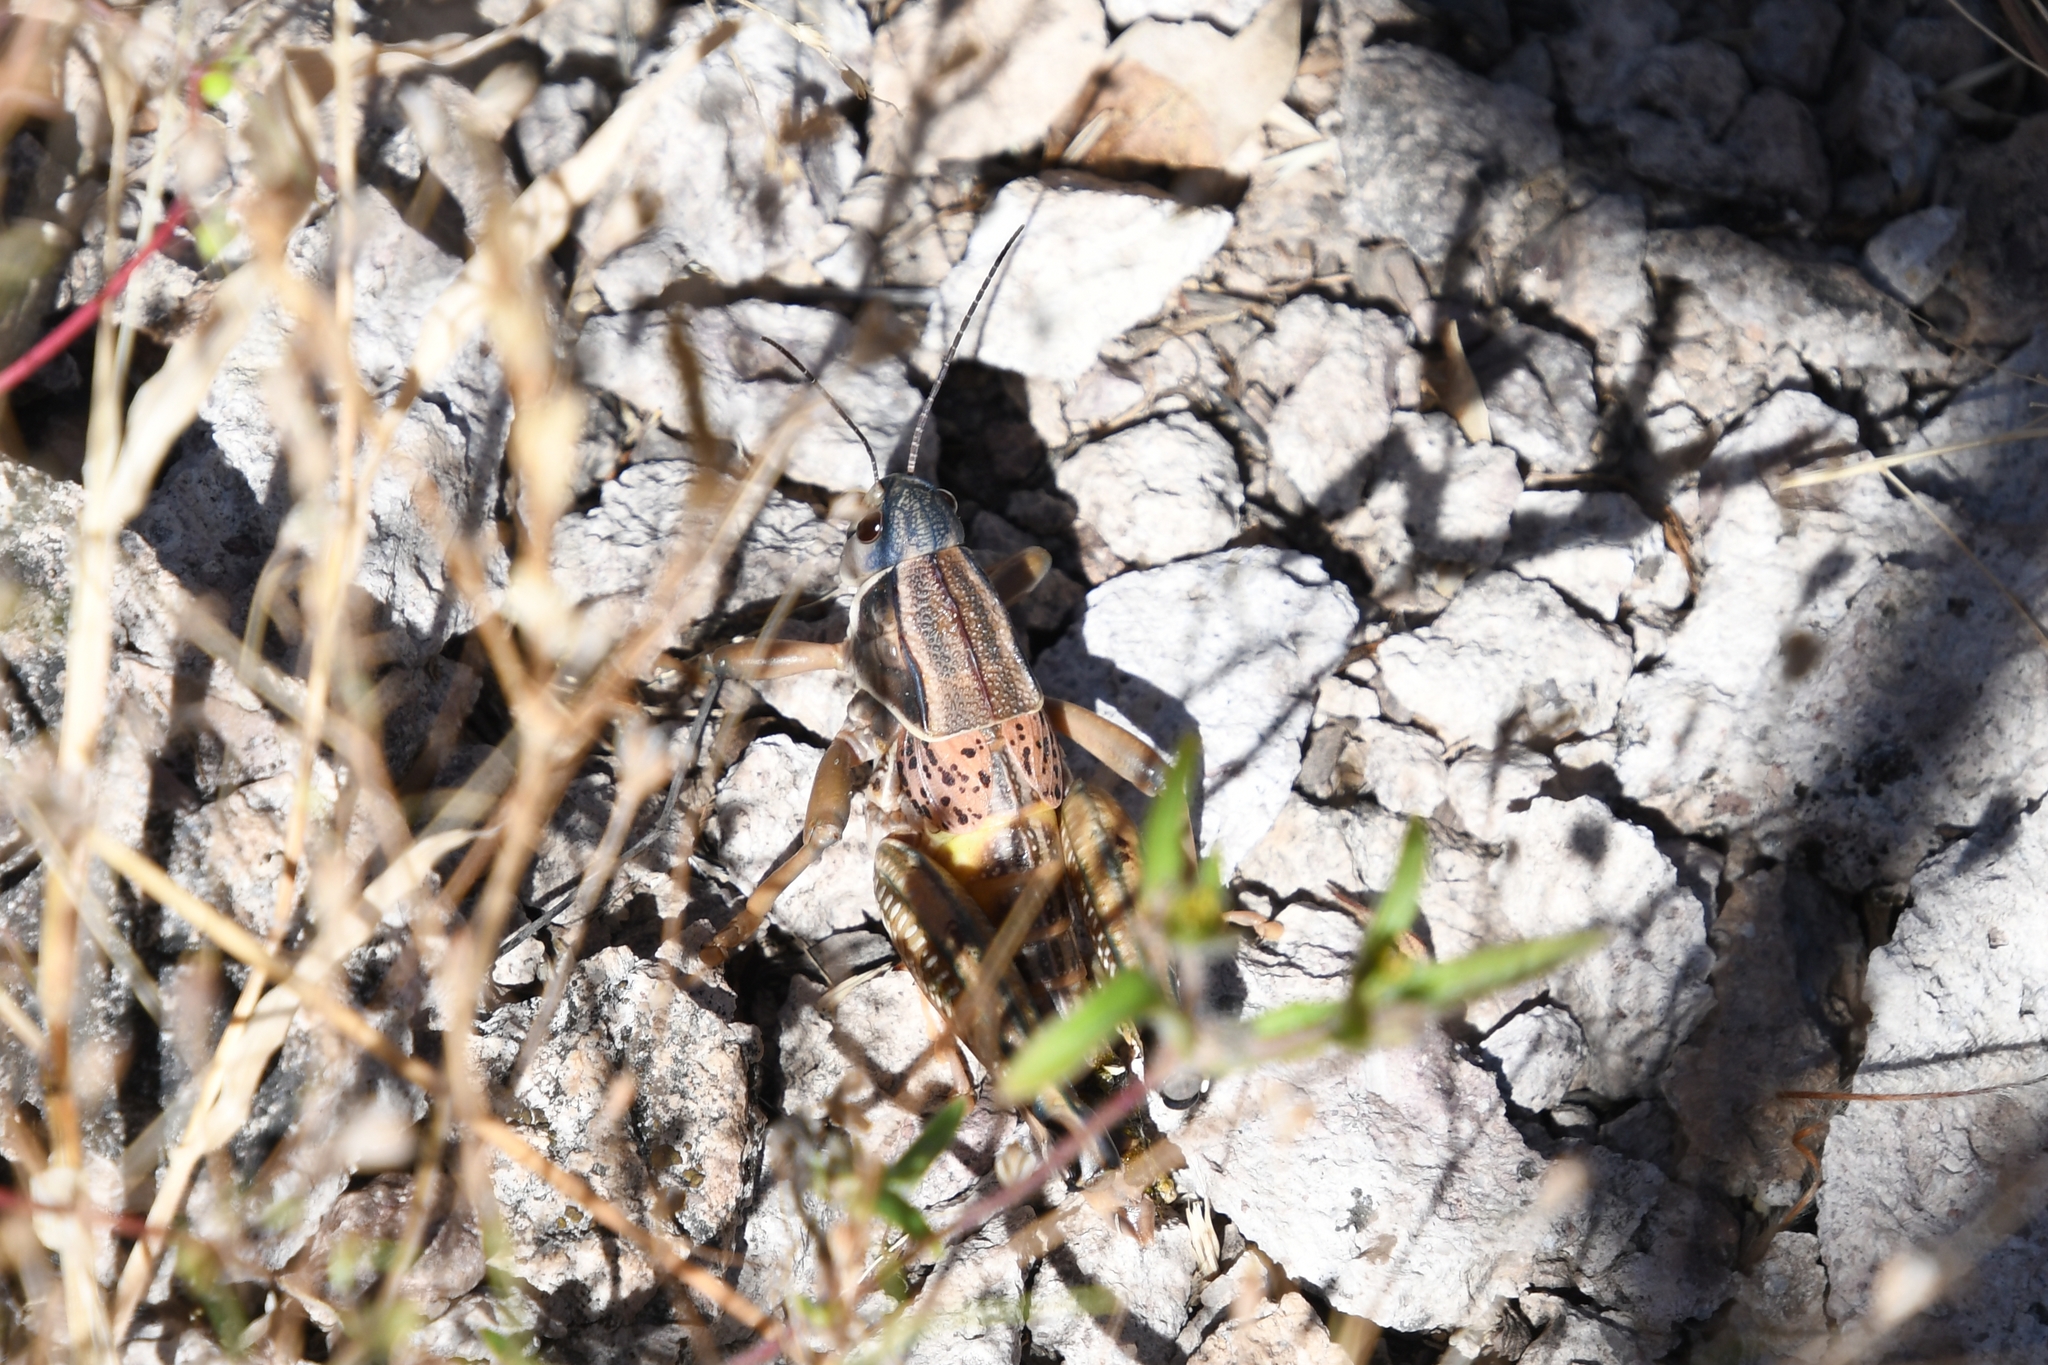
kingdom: Animalia
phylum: Arthropoda
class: Insecta
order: Orthoptera
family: Romaleidae
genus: Brachystola
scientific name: Brachystola magna
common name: Plains lubber grasshopper
